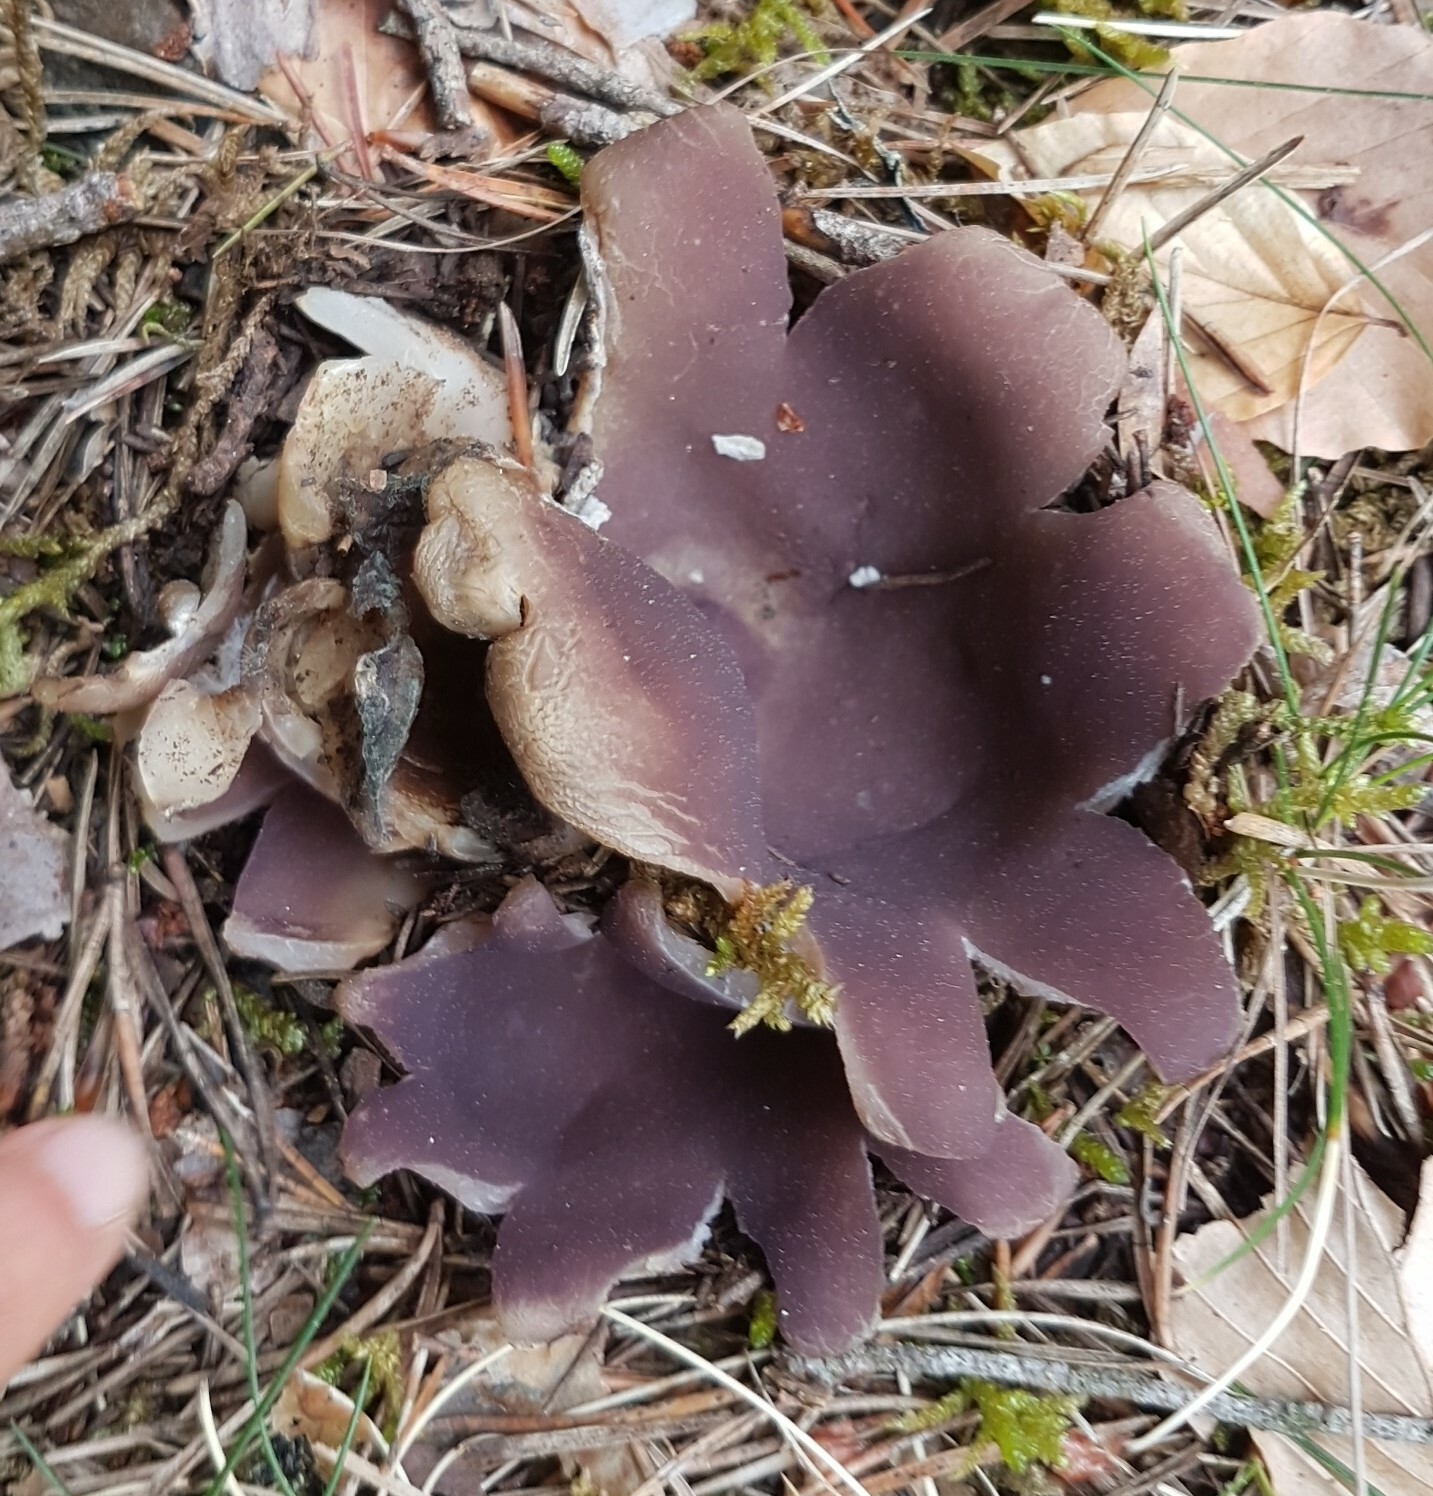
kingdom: Fungi
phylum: Ascomycota
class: Pezizomycetes
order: Pezizales
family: Pezizaceae
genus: Sarcosphaera
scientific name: Sarcosphaera coronaria
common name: Violet crowncup
